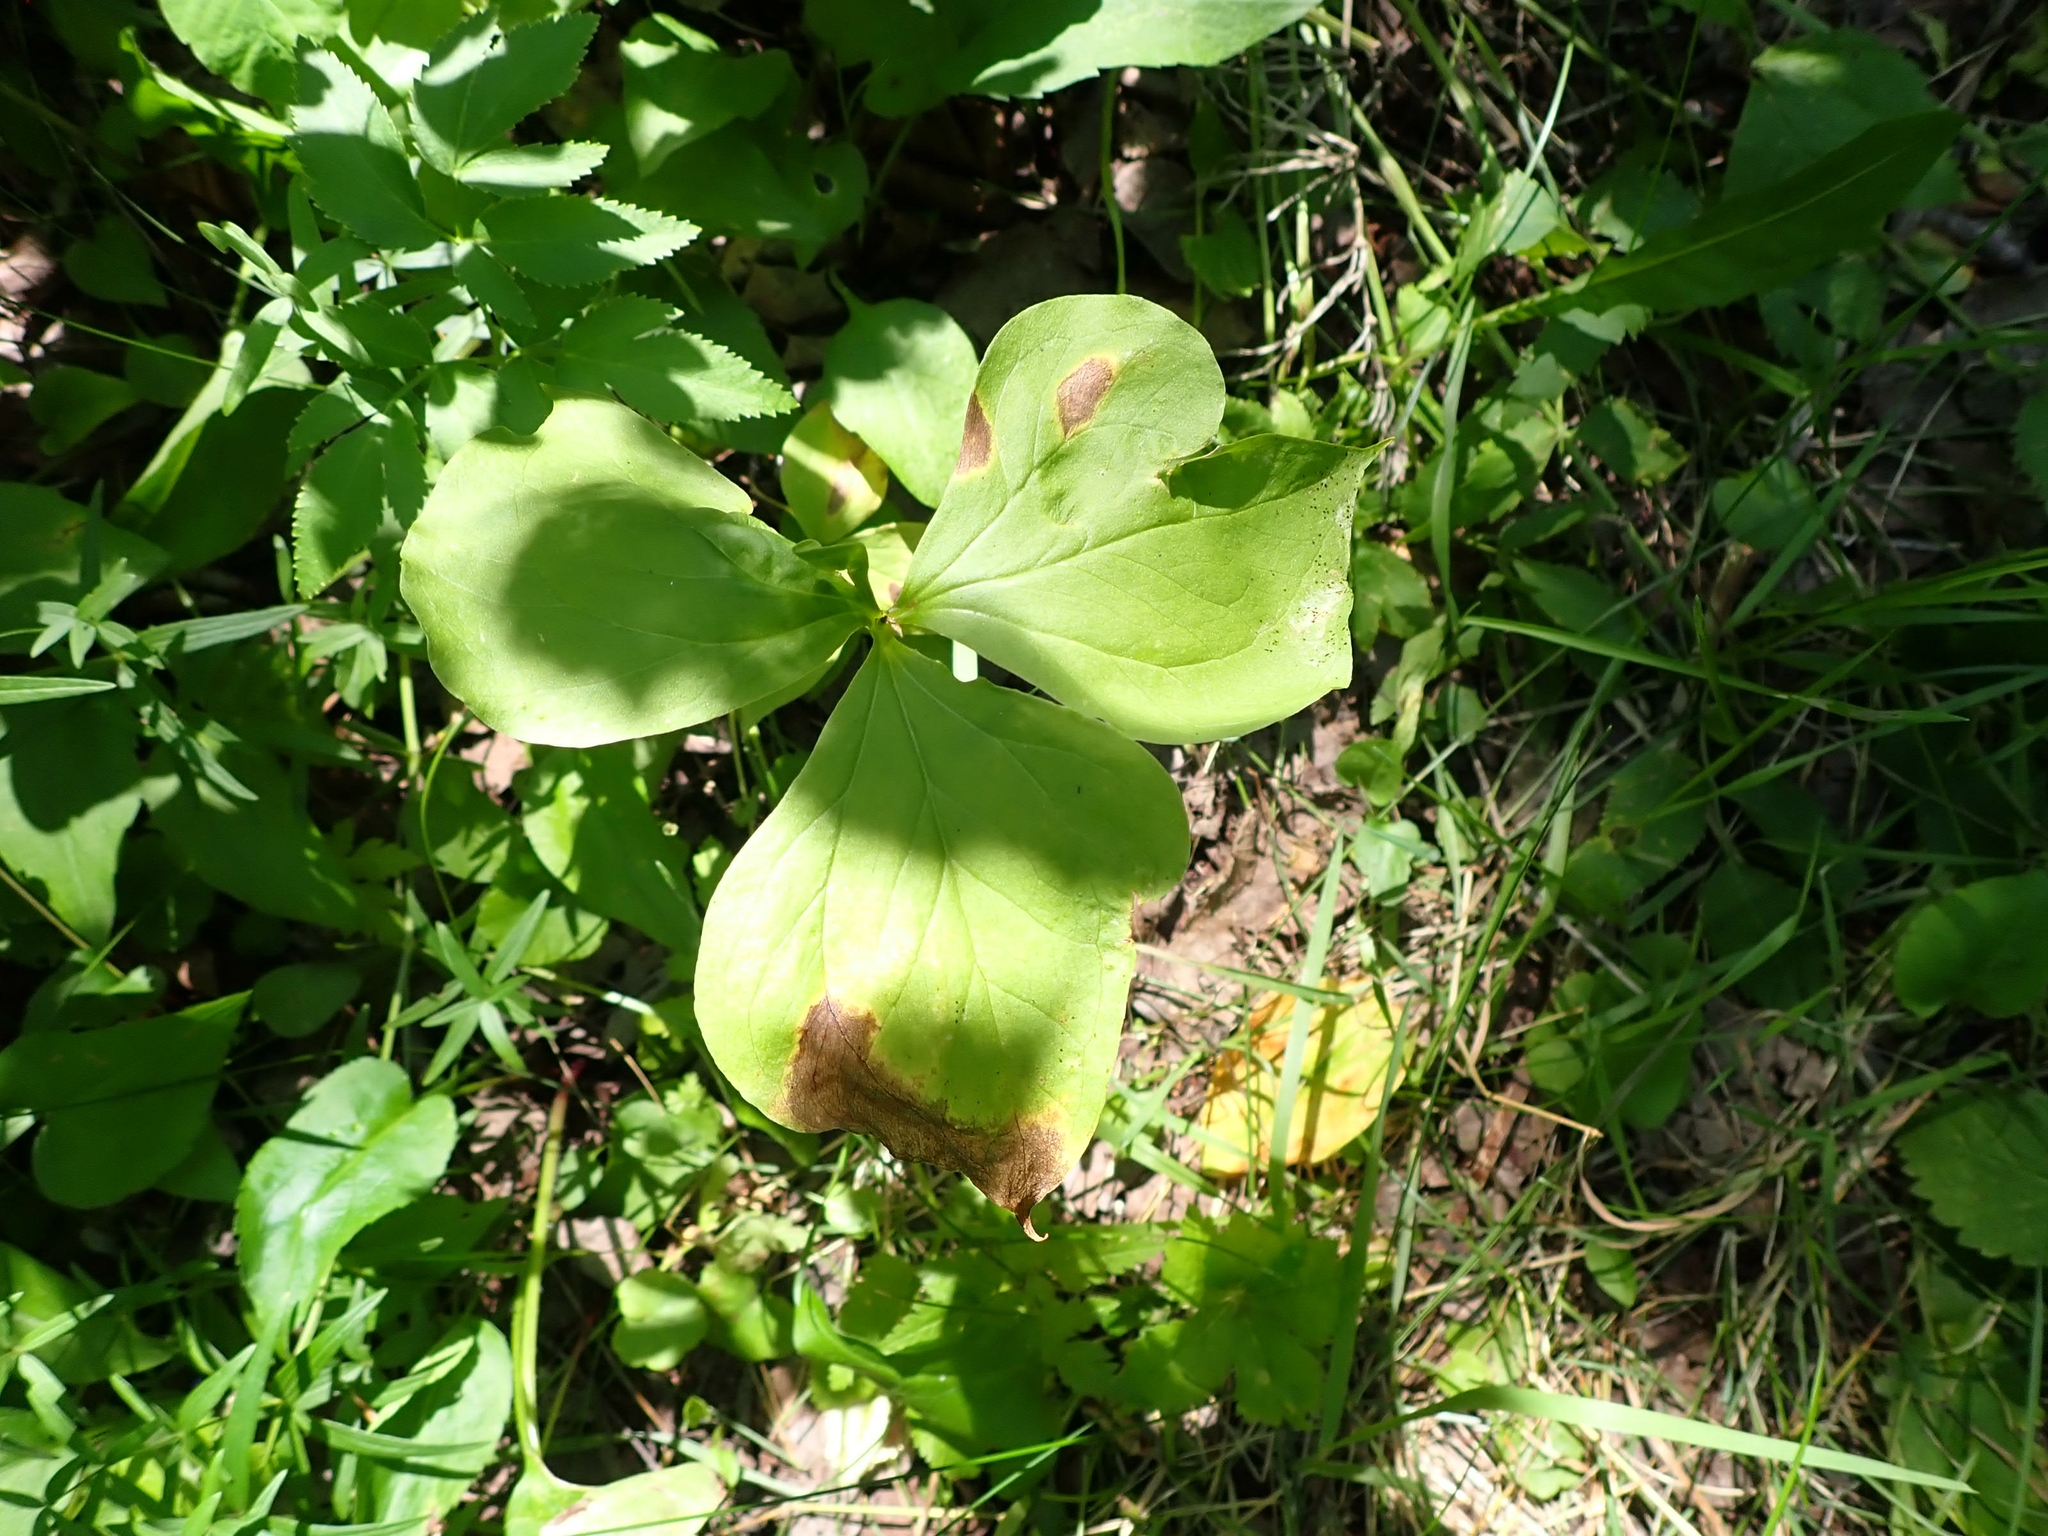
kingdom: Plantae
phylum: Tracheophyta
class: Liliopsida
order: Liliales
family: Melanthiaceae
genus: Trillium
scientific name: Trillium cernuum
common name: Nodding trillium
